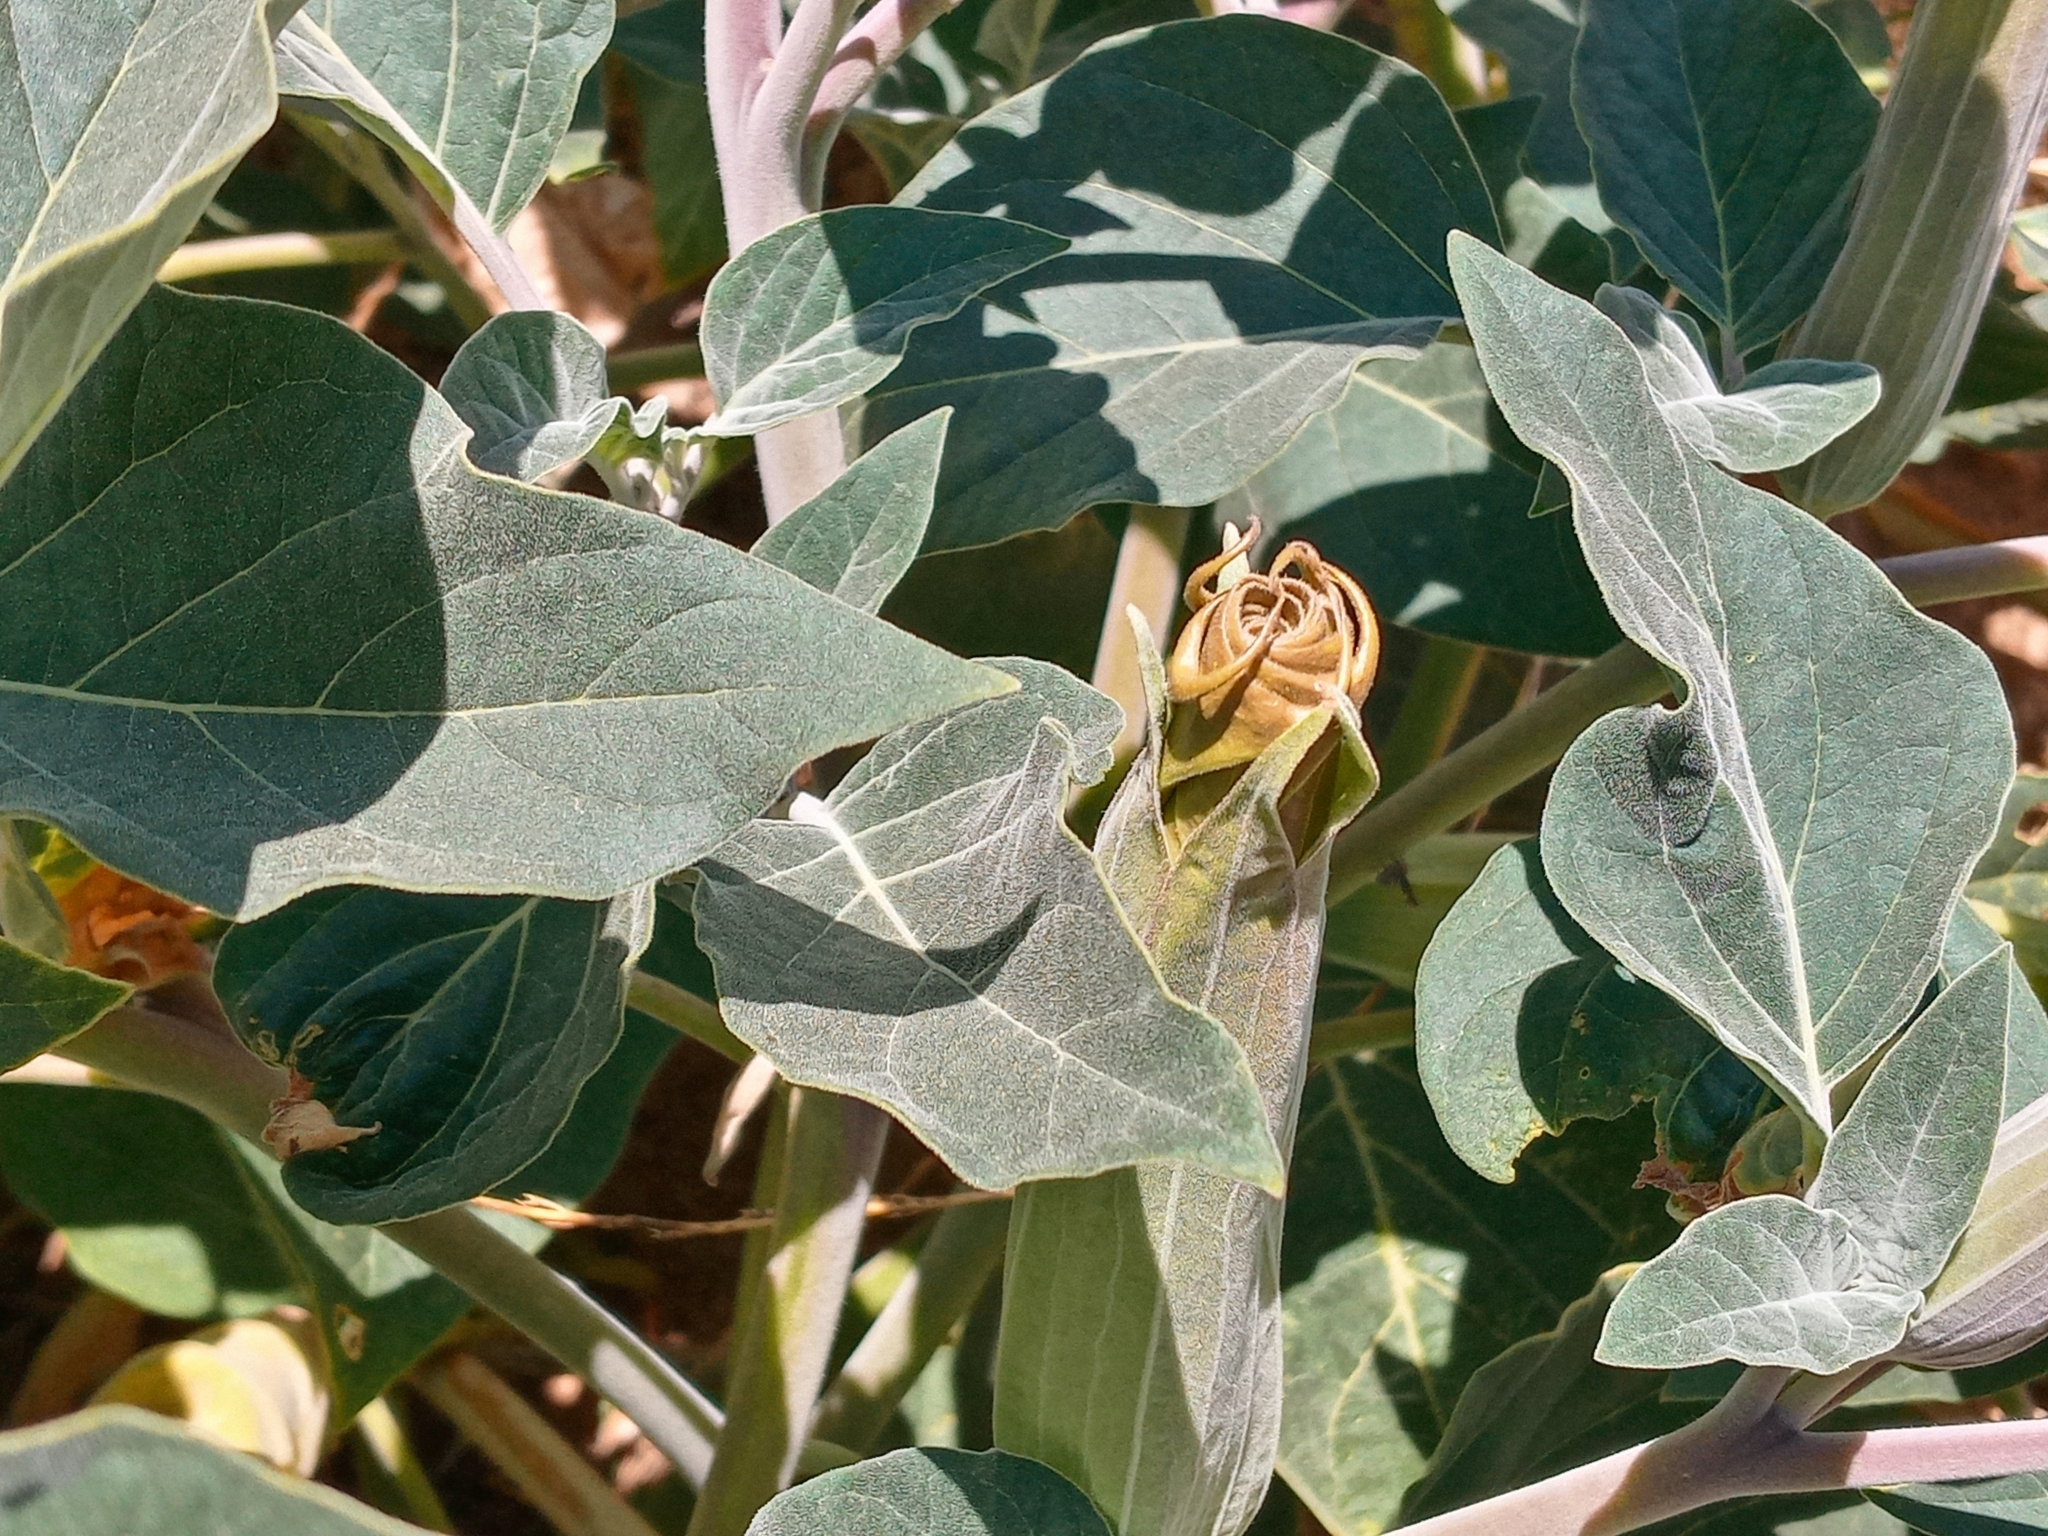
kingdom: Plantae
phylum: Tracheophyta
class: Magnoliopsida
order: Solanales
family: Solanaceae
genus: Datura
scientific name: Datura wrightii
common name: Sacred thorn-apple
